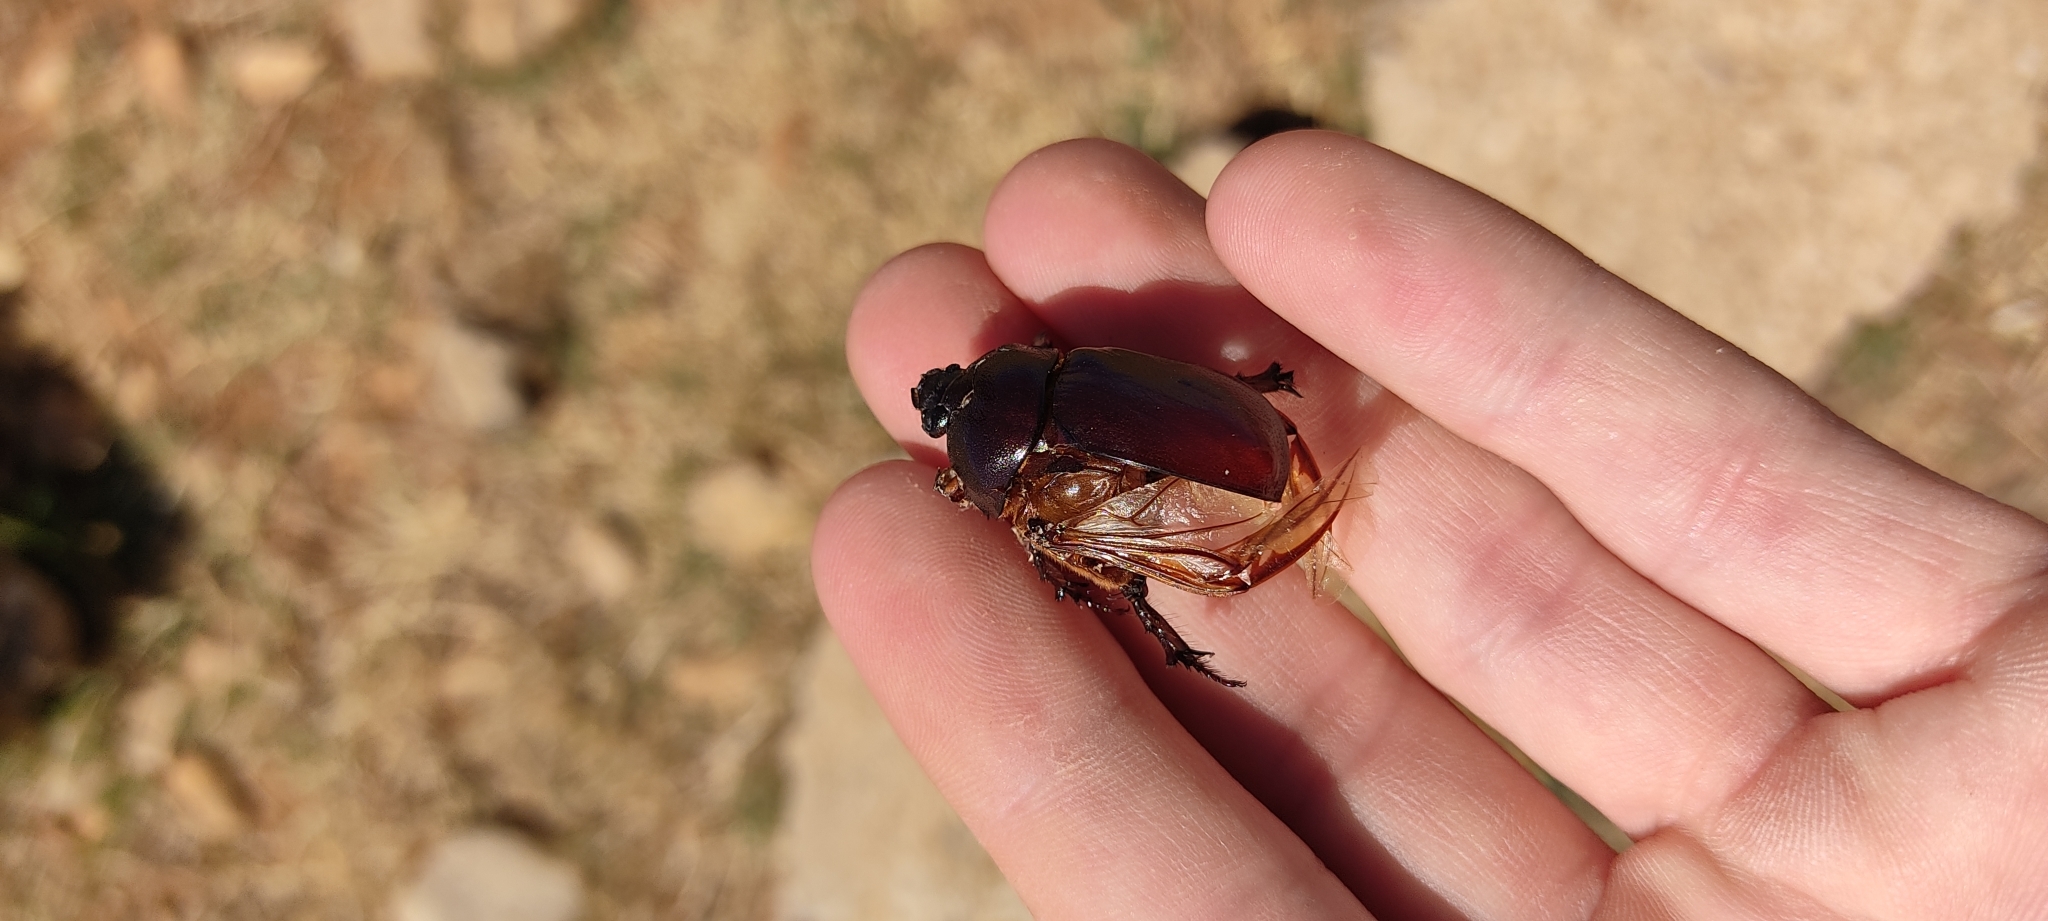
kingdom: Animalia
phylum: Arthropoda
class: Insecta
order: Coleoptera
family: Scarabaeidae
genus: Oryctes
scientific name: Oryctes nasicornis
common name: European rhinoceros beetle
